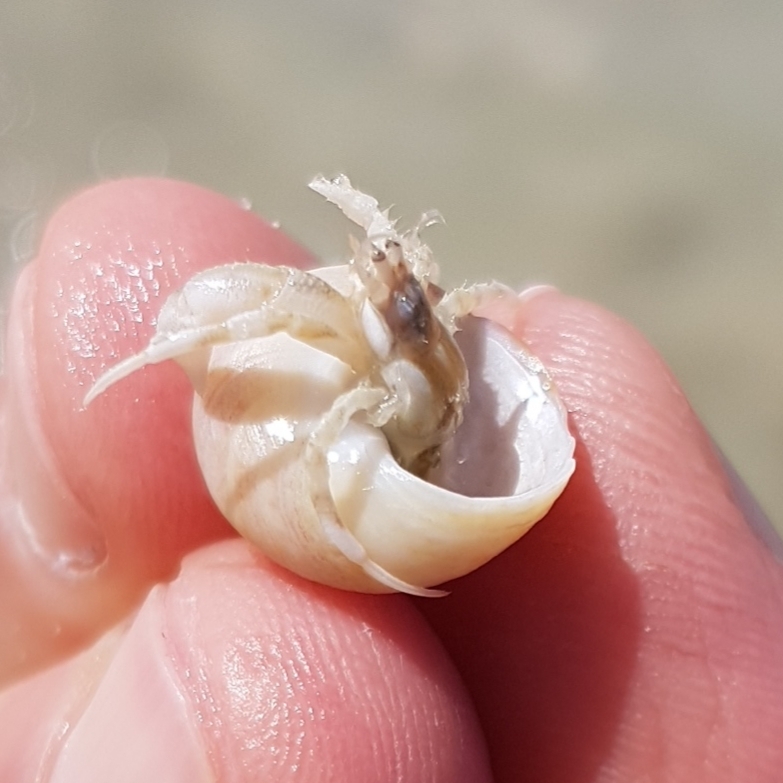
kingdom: Animalia
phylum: Arthropoda
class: Malacostraca
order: Decapoda
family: Diogenidae
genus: Diogenes
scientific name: Diogenes pugilator
